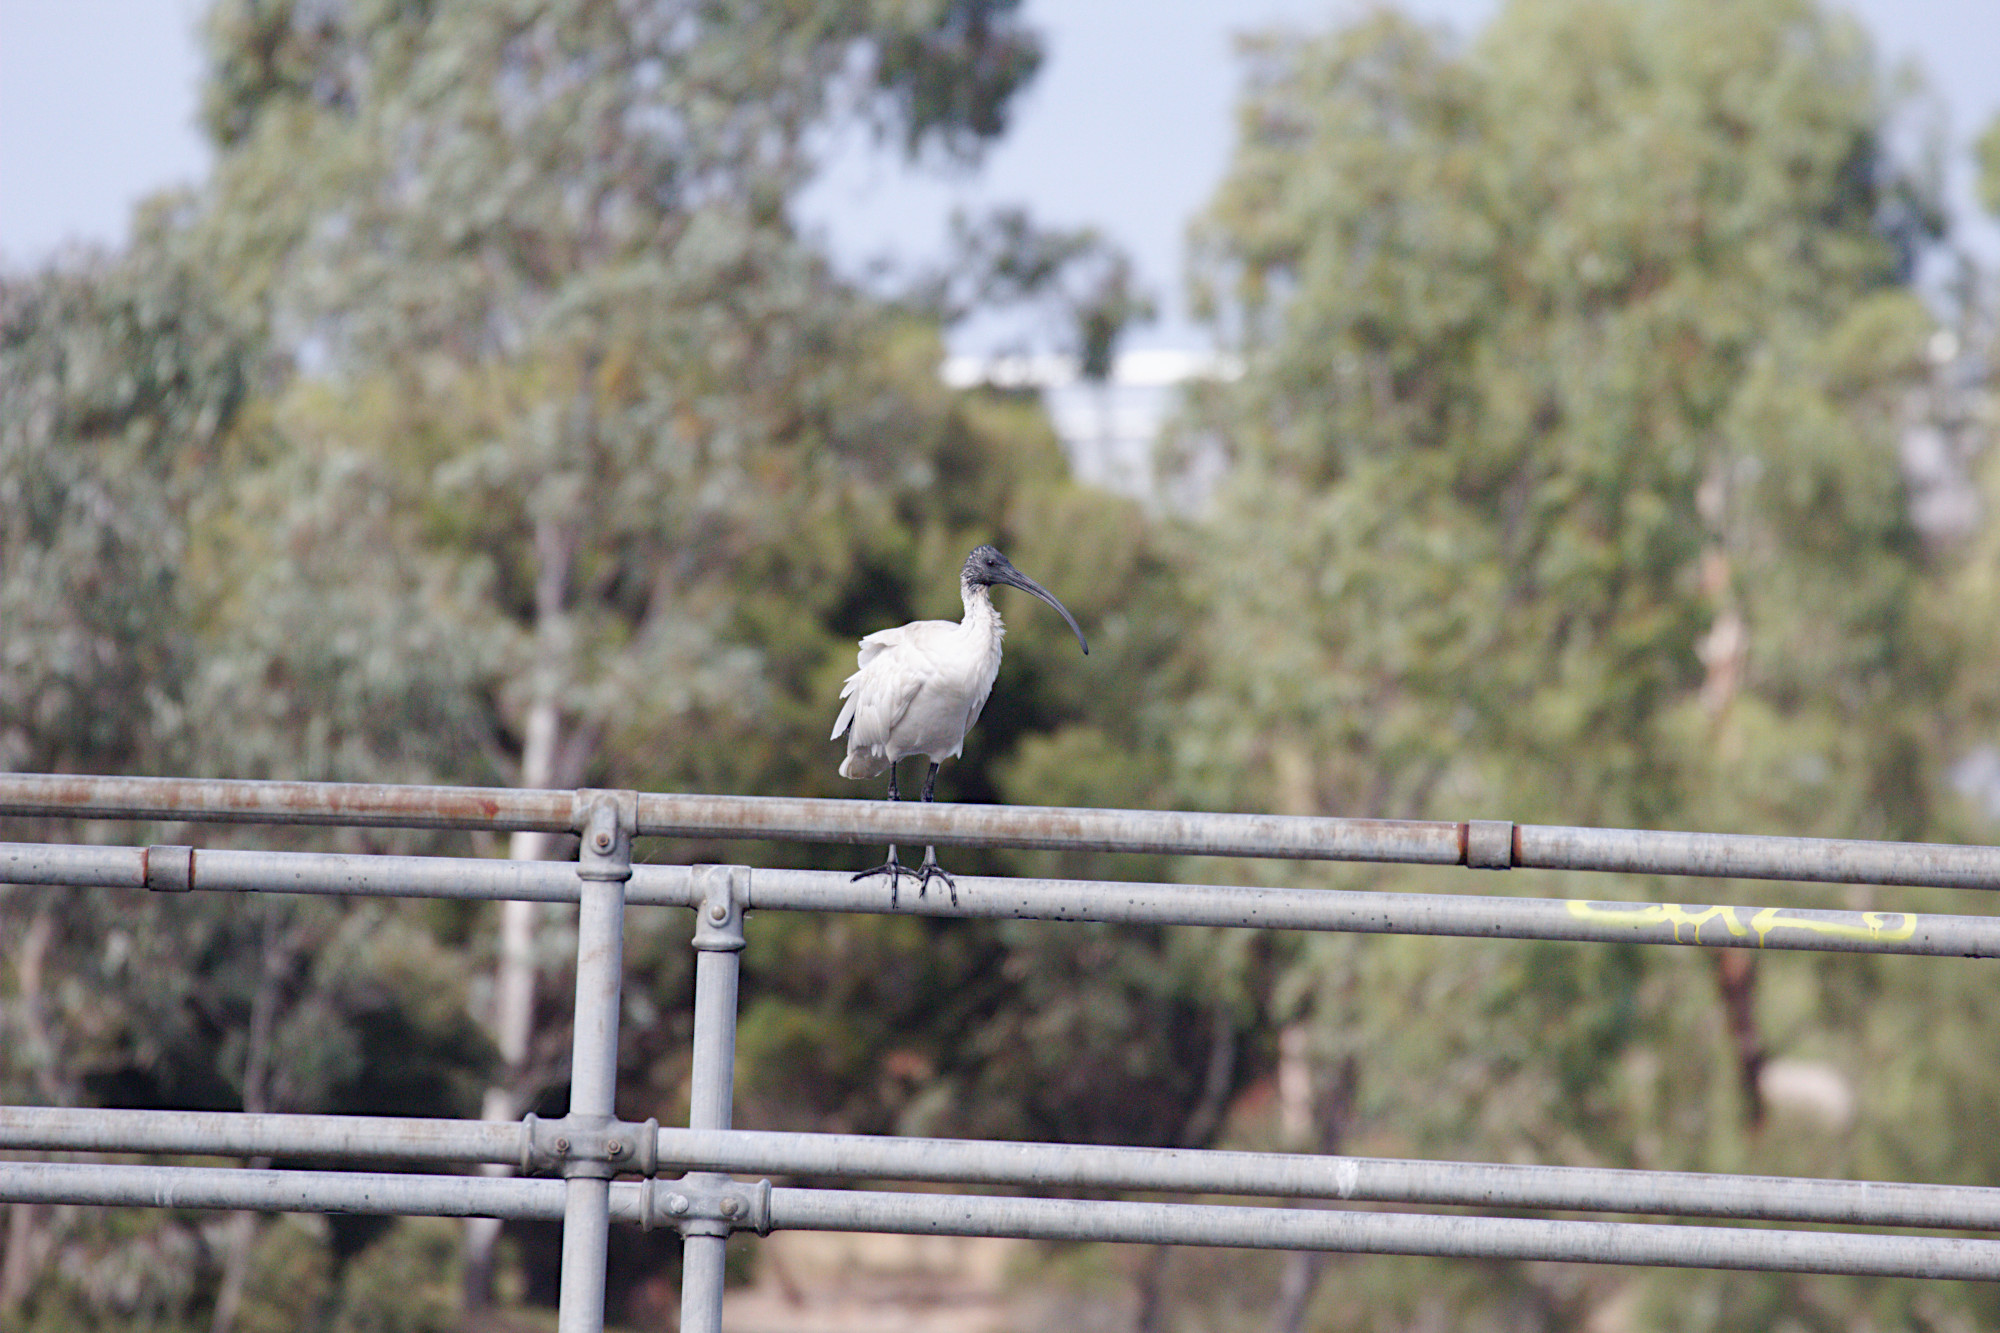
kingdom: Animalia
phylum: Chordata
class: Aves
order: Pelecaniformes
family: Threskiornithidae
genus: Threskiornis
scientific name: Threskiornis molucca
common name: Australian white ibis
